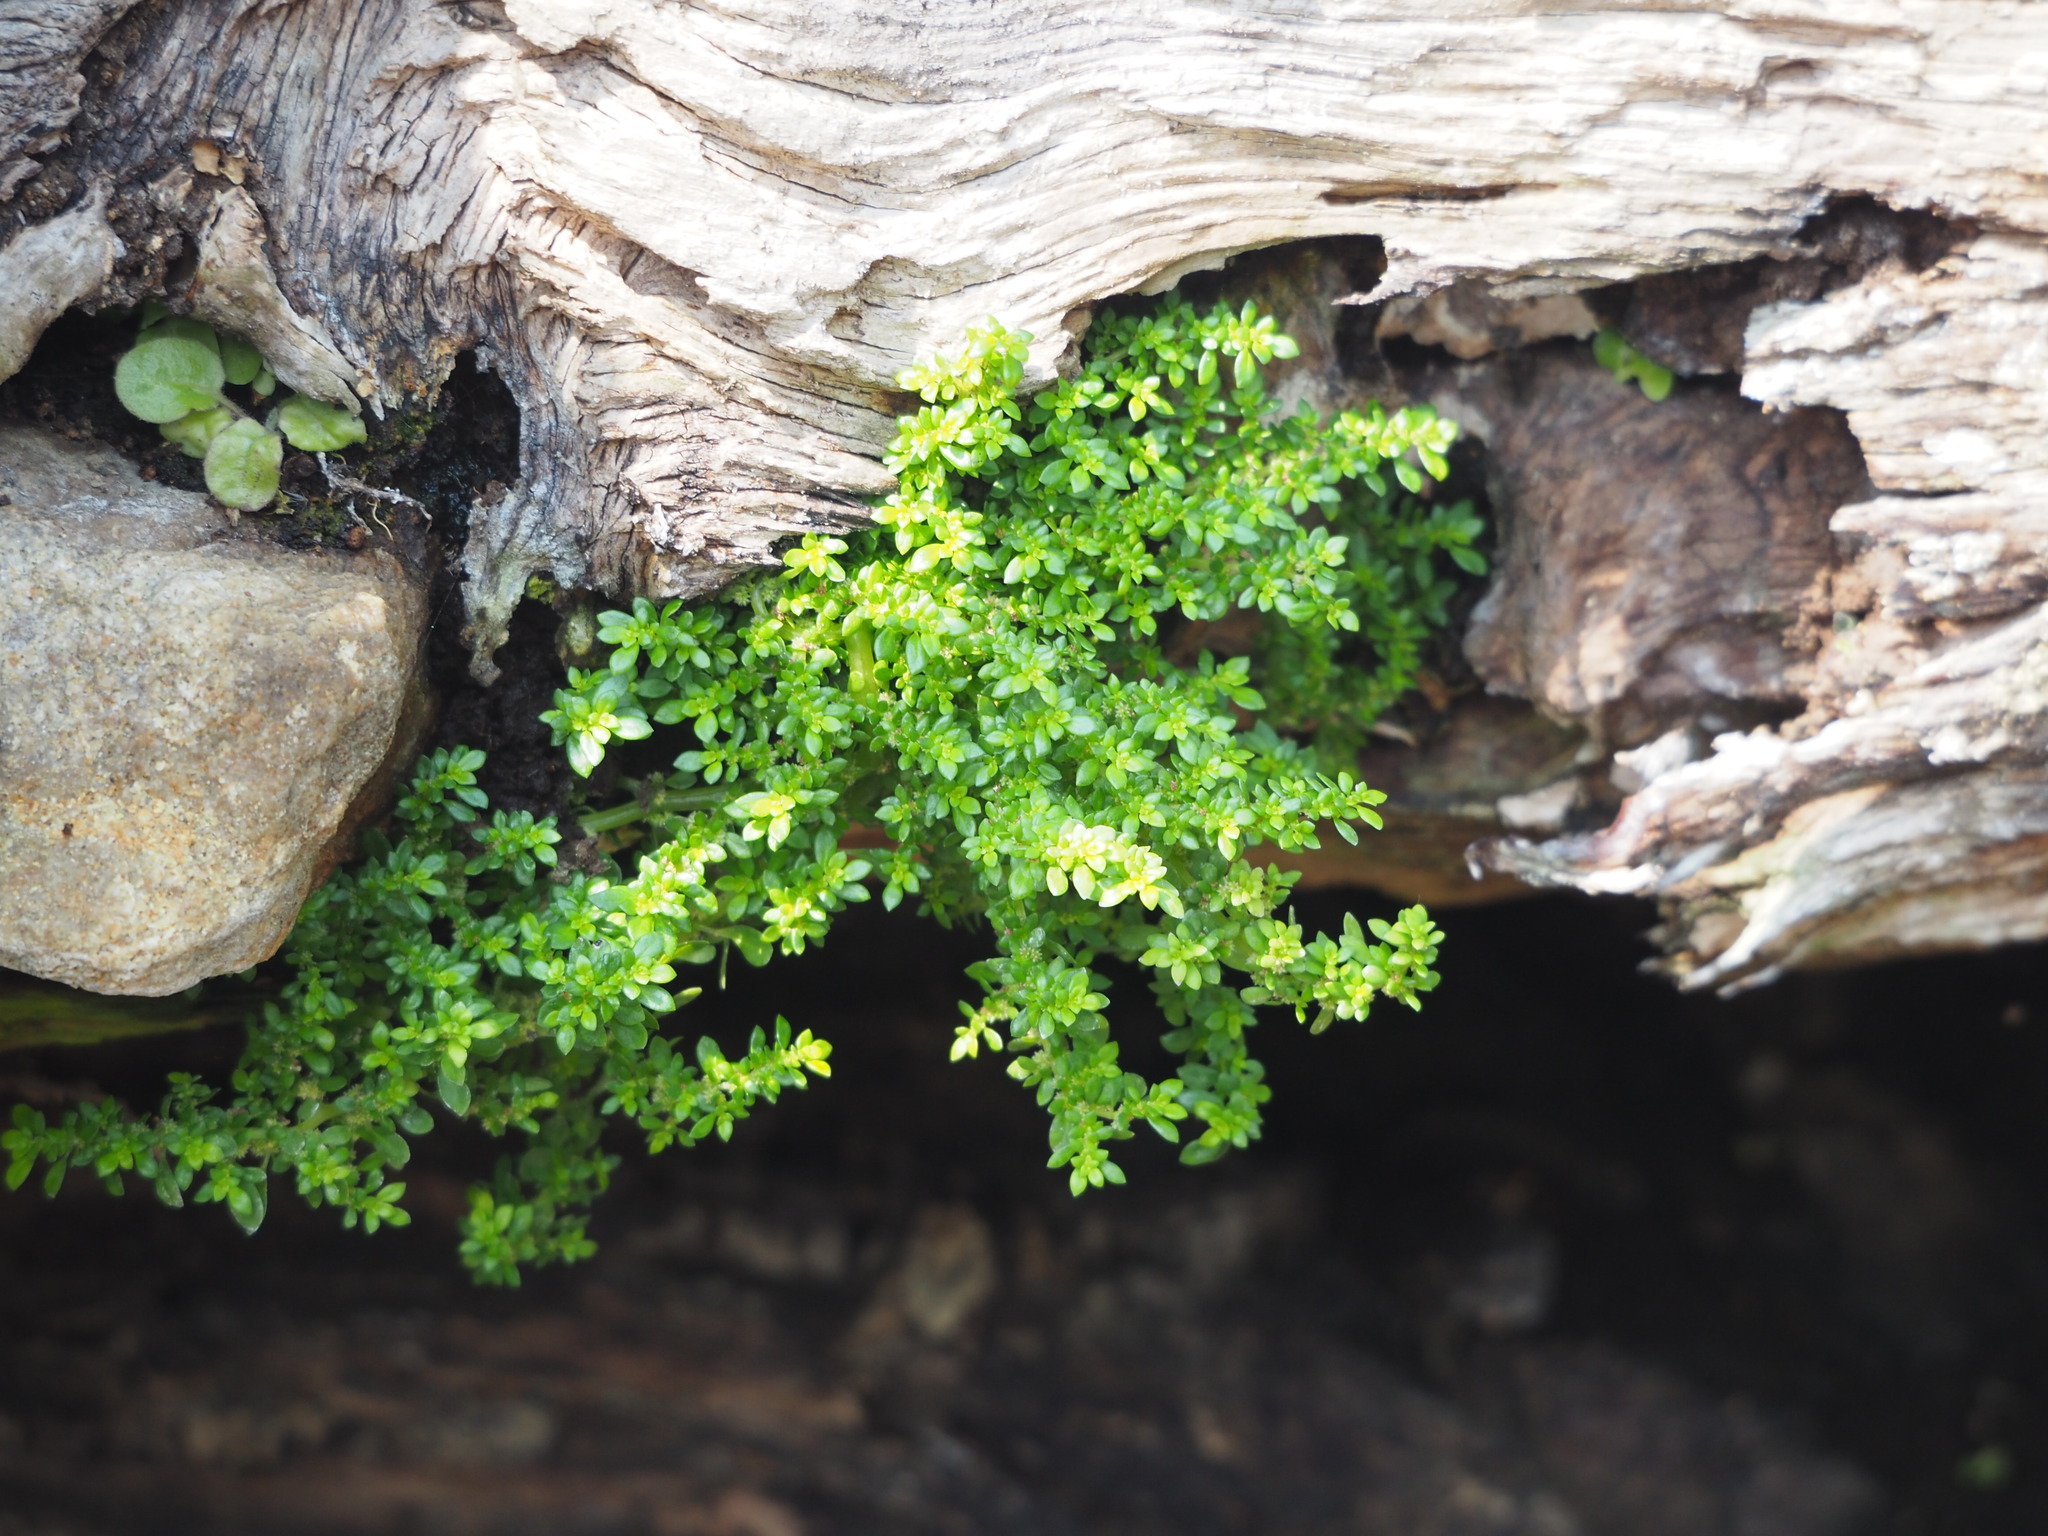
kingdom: Plantae
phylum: Tracheophyta
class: Magnoliopsida
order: Rosales
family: Urticaceae
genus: Pilea
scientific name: Pilea microphylla
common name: Artillery-plant
